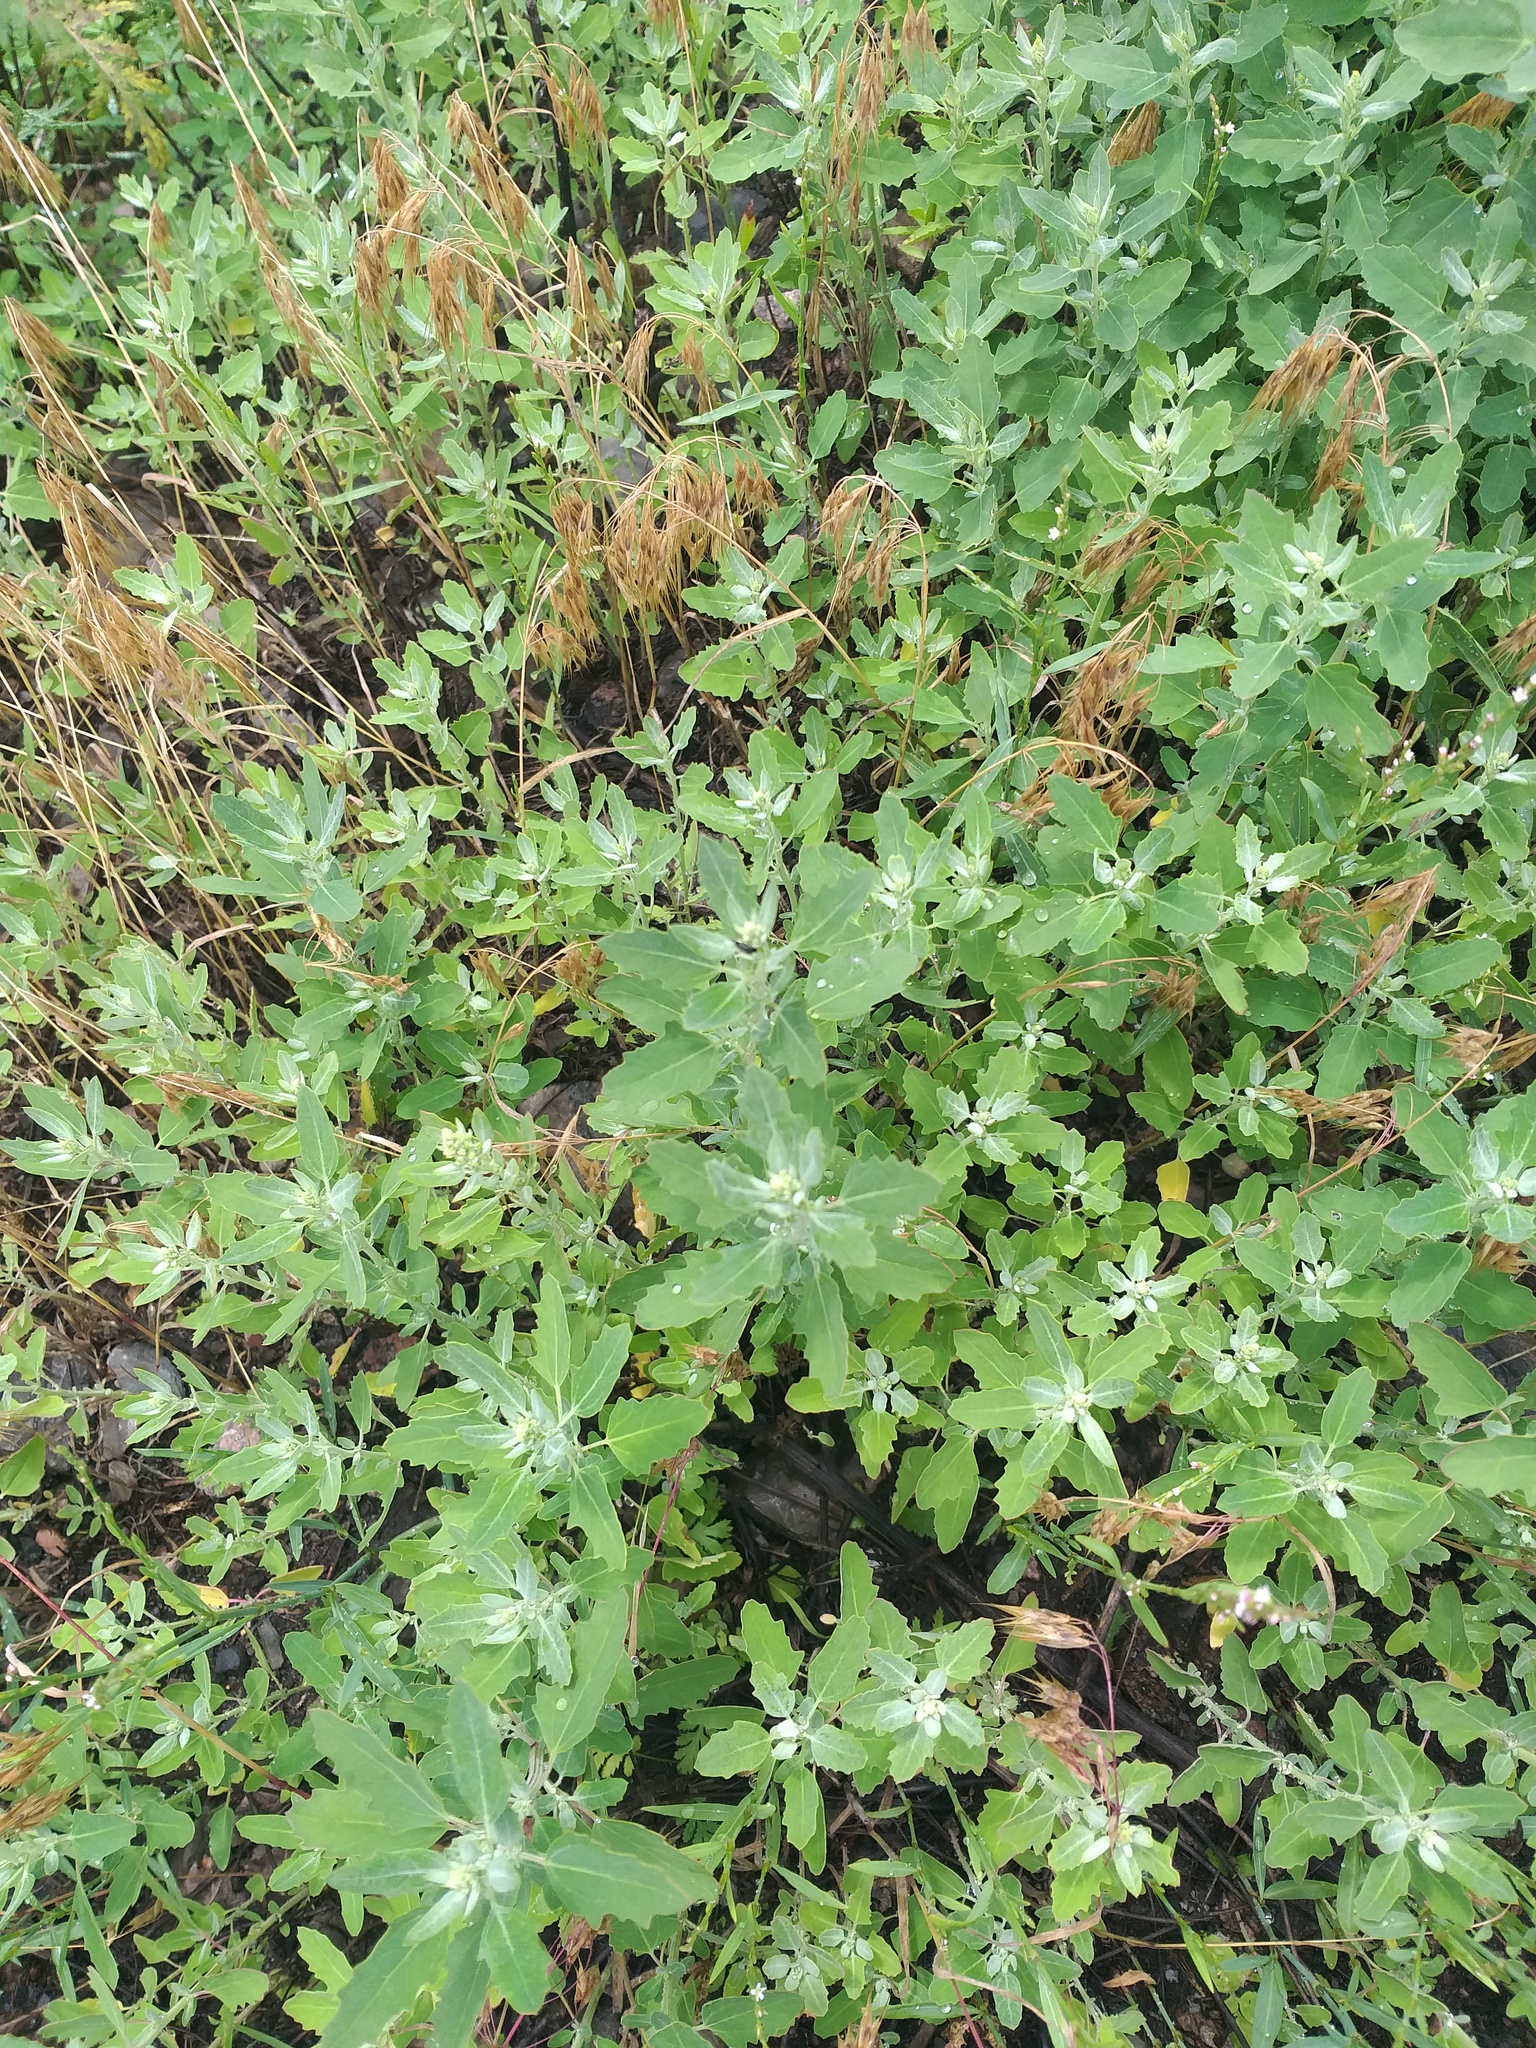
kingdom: Plantae
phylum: Tracheophyta
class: Magnoliopsida
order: Caryophyllales
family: Amaranthaceae
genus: Chenopodium
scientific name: Chenopodium album
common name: Fat-hen
